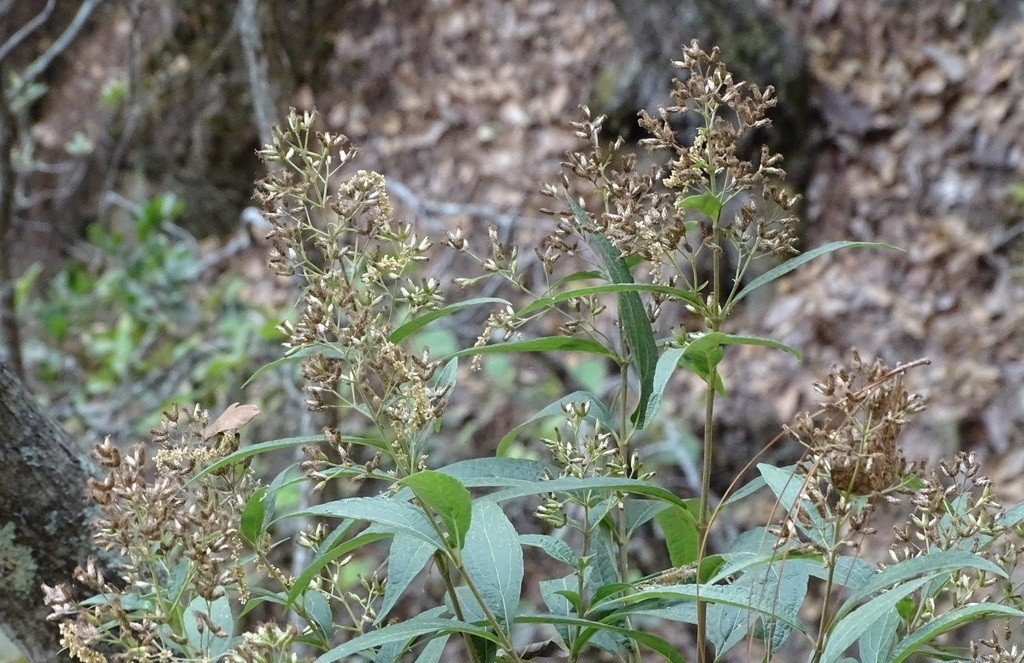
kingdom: Plantae
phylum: Tracheophyta
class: Magnoliopsida
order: Asterales
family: Asteraceae
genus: Chromolaena
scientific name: Chromolaena ovaliflora
